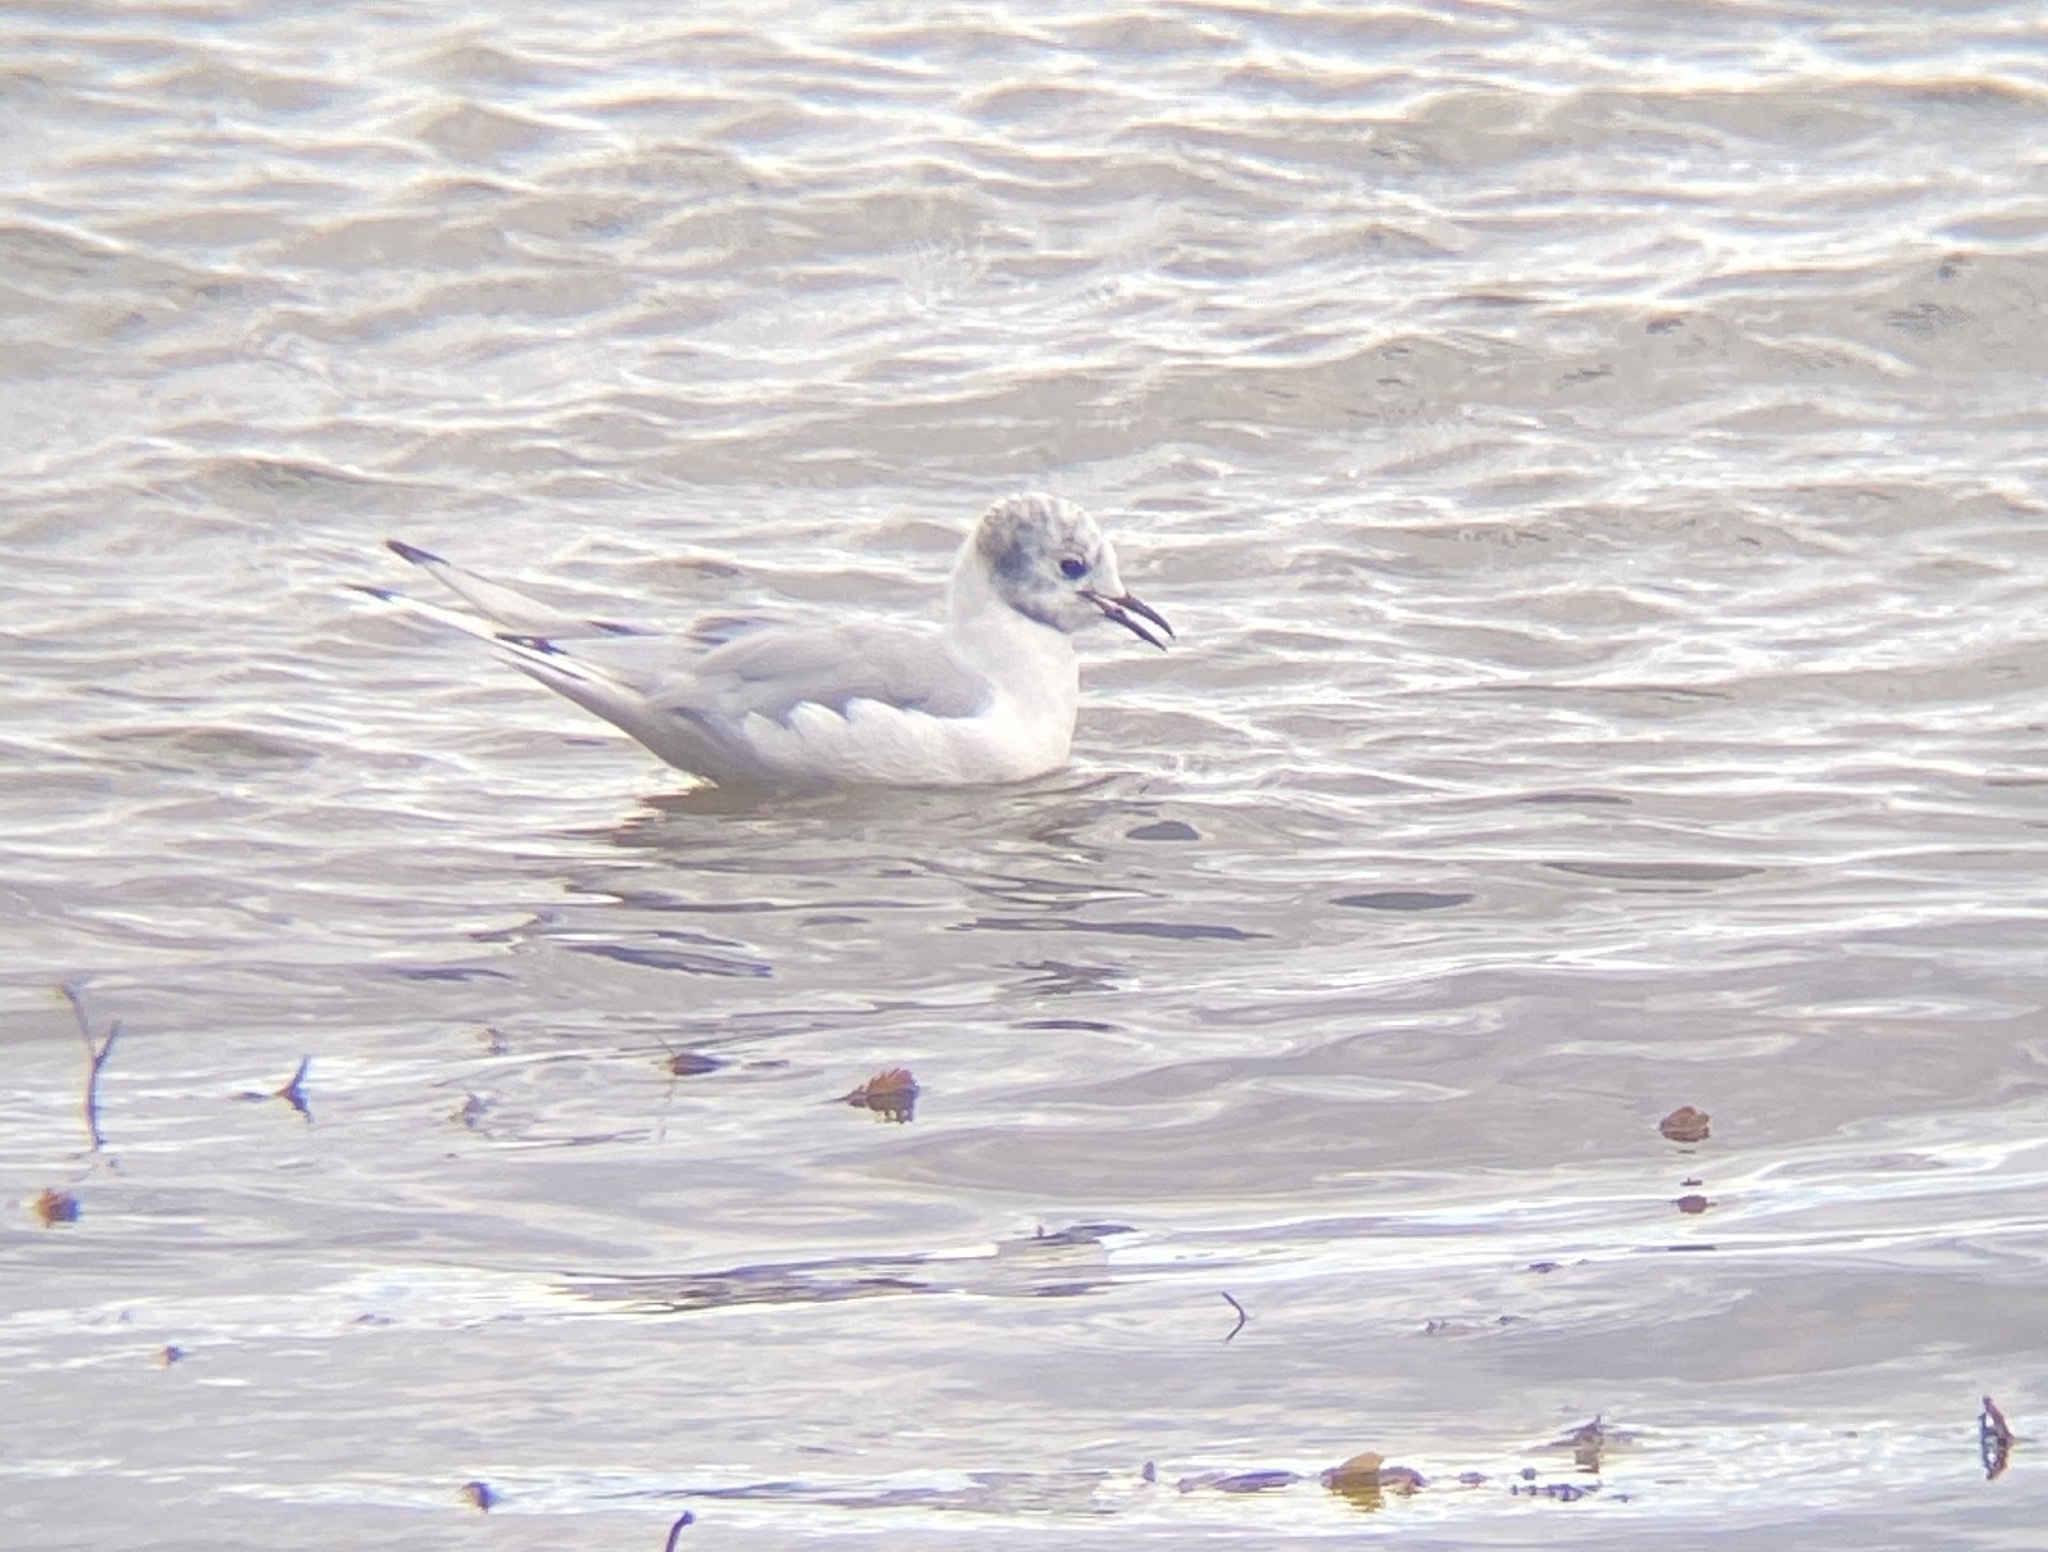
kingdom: Animalia
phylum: Chordata
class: Aves
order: Charadriiformes
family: Laridae
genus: Chroicocephalus
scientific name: Chroicocephalus philadelphia
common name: Bonaparte's gull
